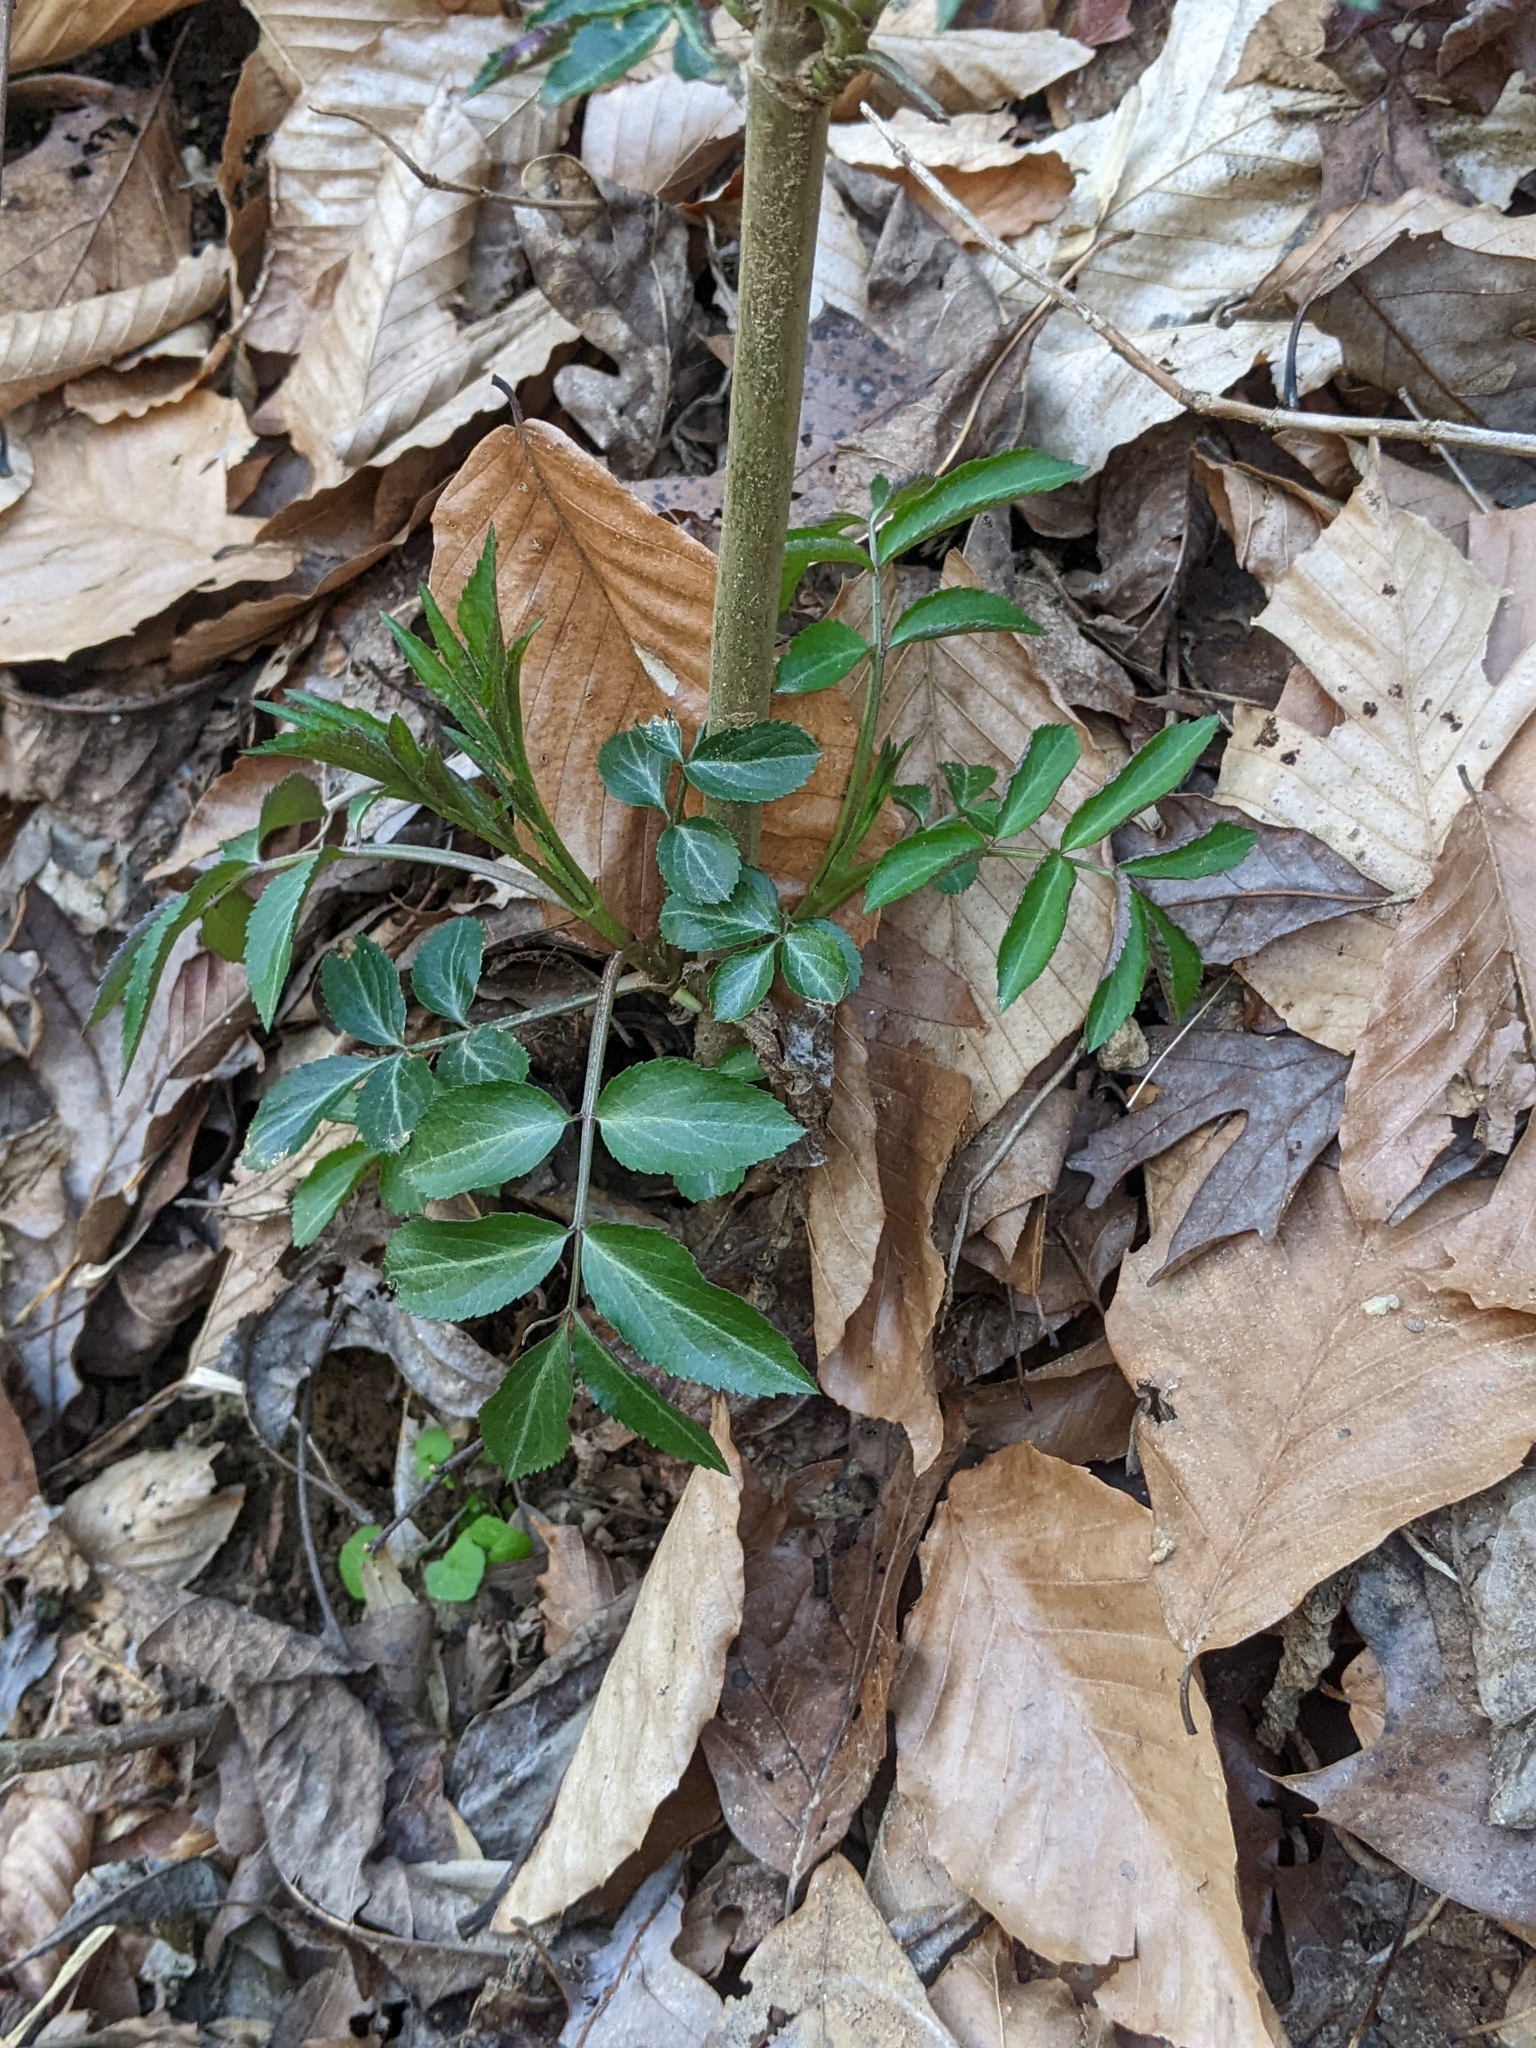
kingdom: Plantae
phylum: Tracheophyta
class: Magnoliopsida
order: Dipsacales
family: Viburnaceae
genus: Sambucus
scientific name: Sambucus canadensis
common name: American elder
